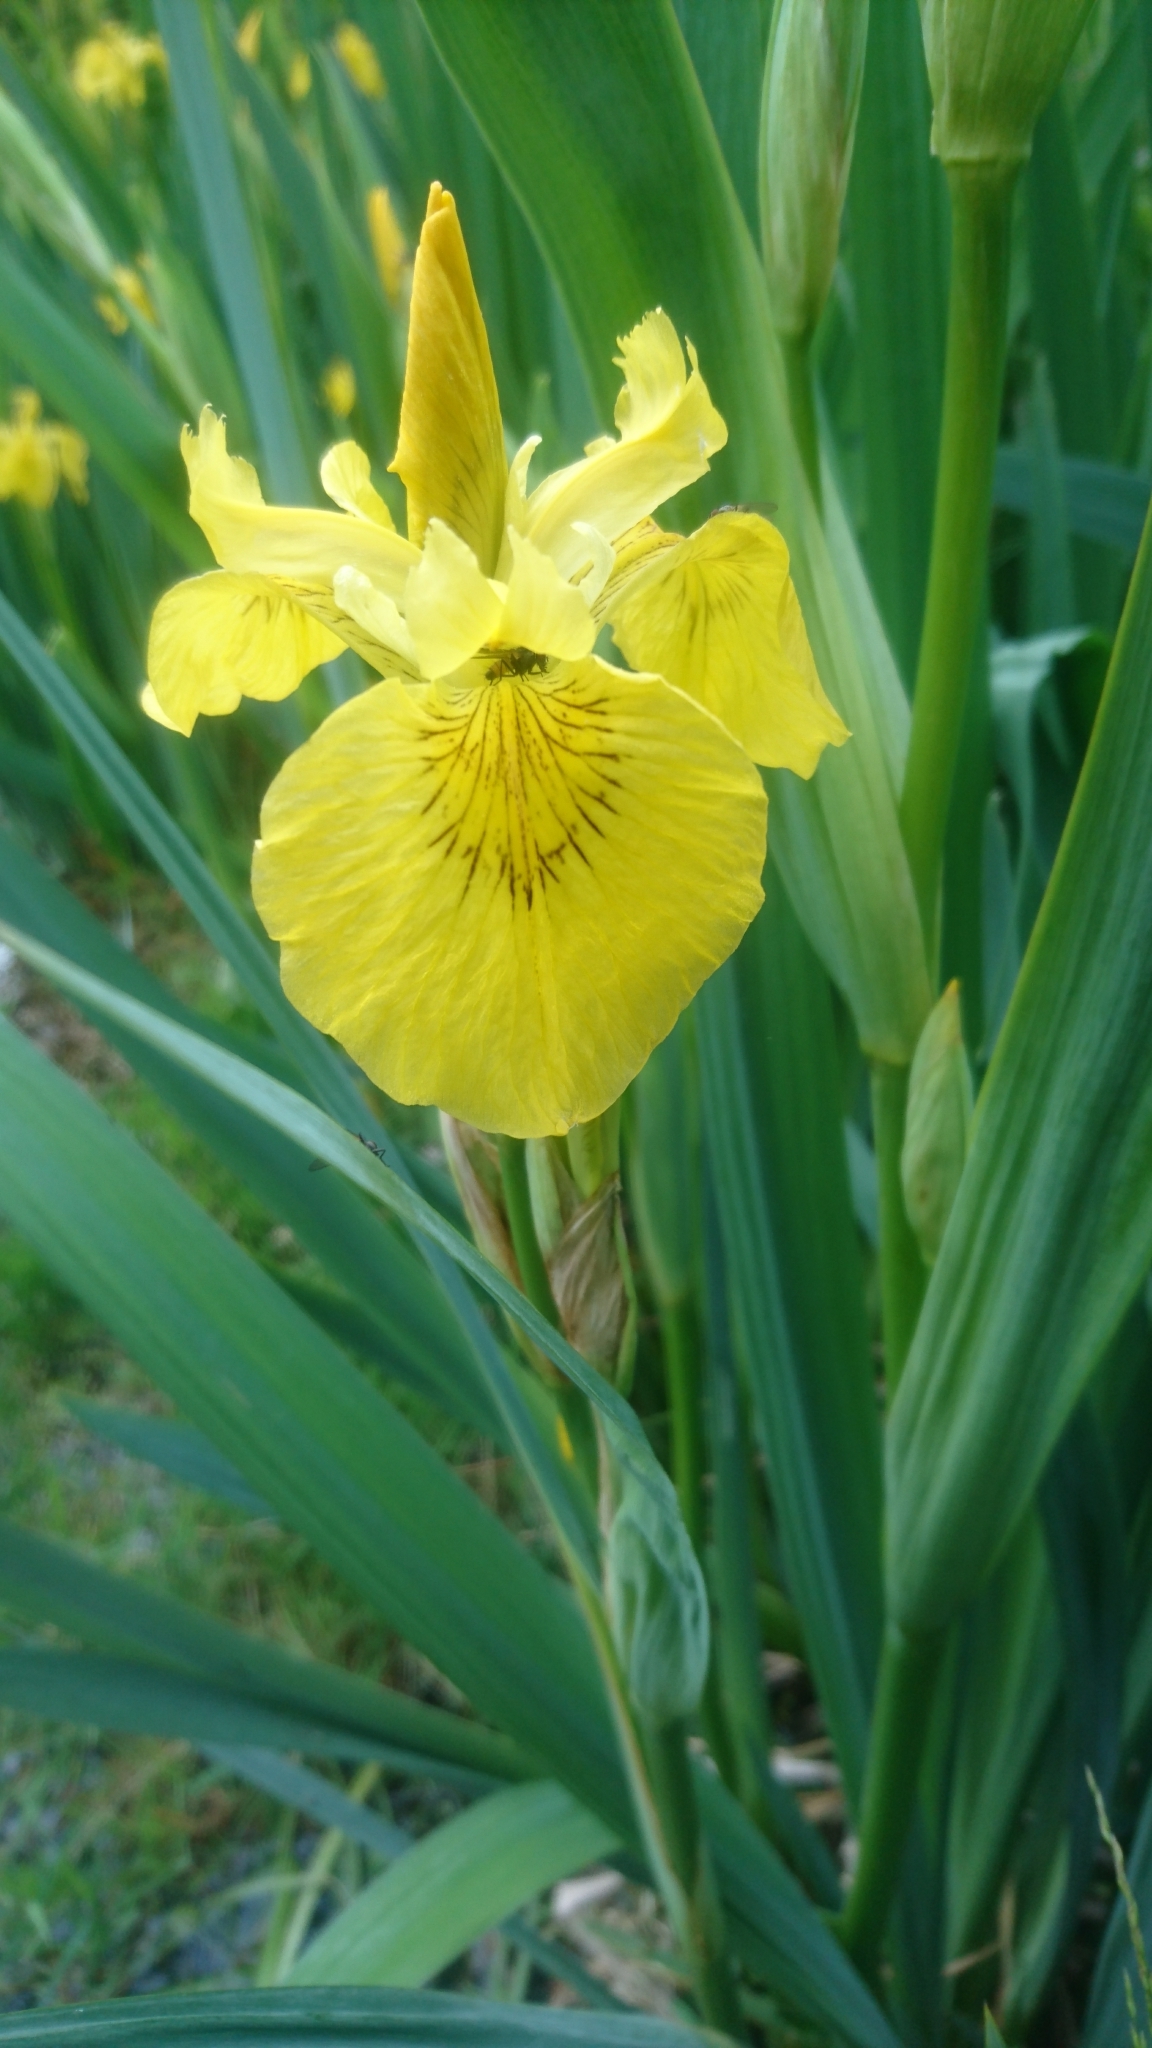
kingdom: Plantae
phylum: Tracheophyta
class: Liliopsida
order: Asparagales
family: Iridaceae
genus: Iris
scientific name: Iris pseudacorus
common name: Yellow flag
